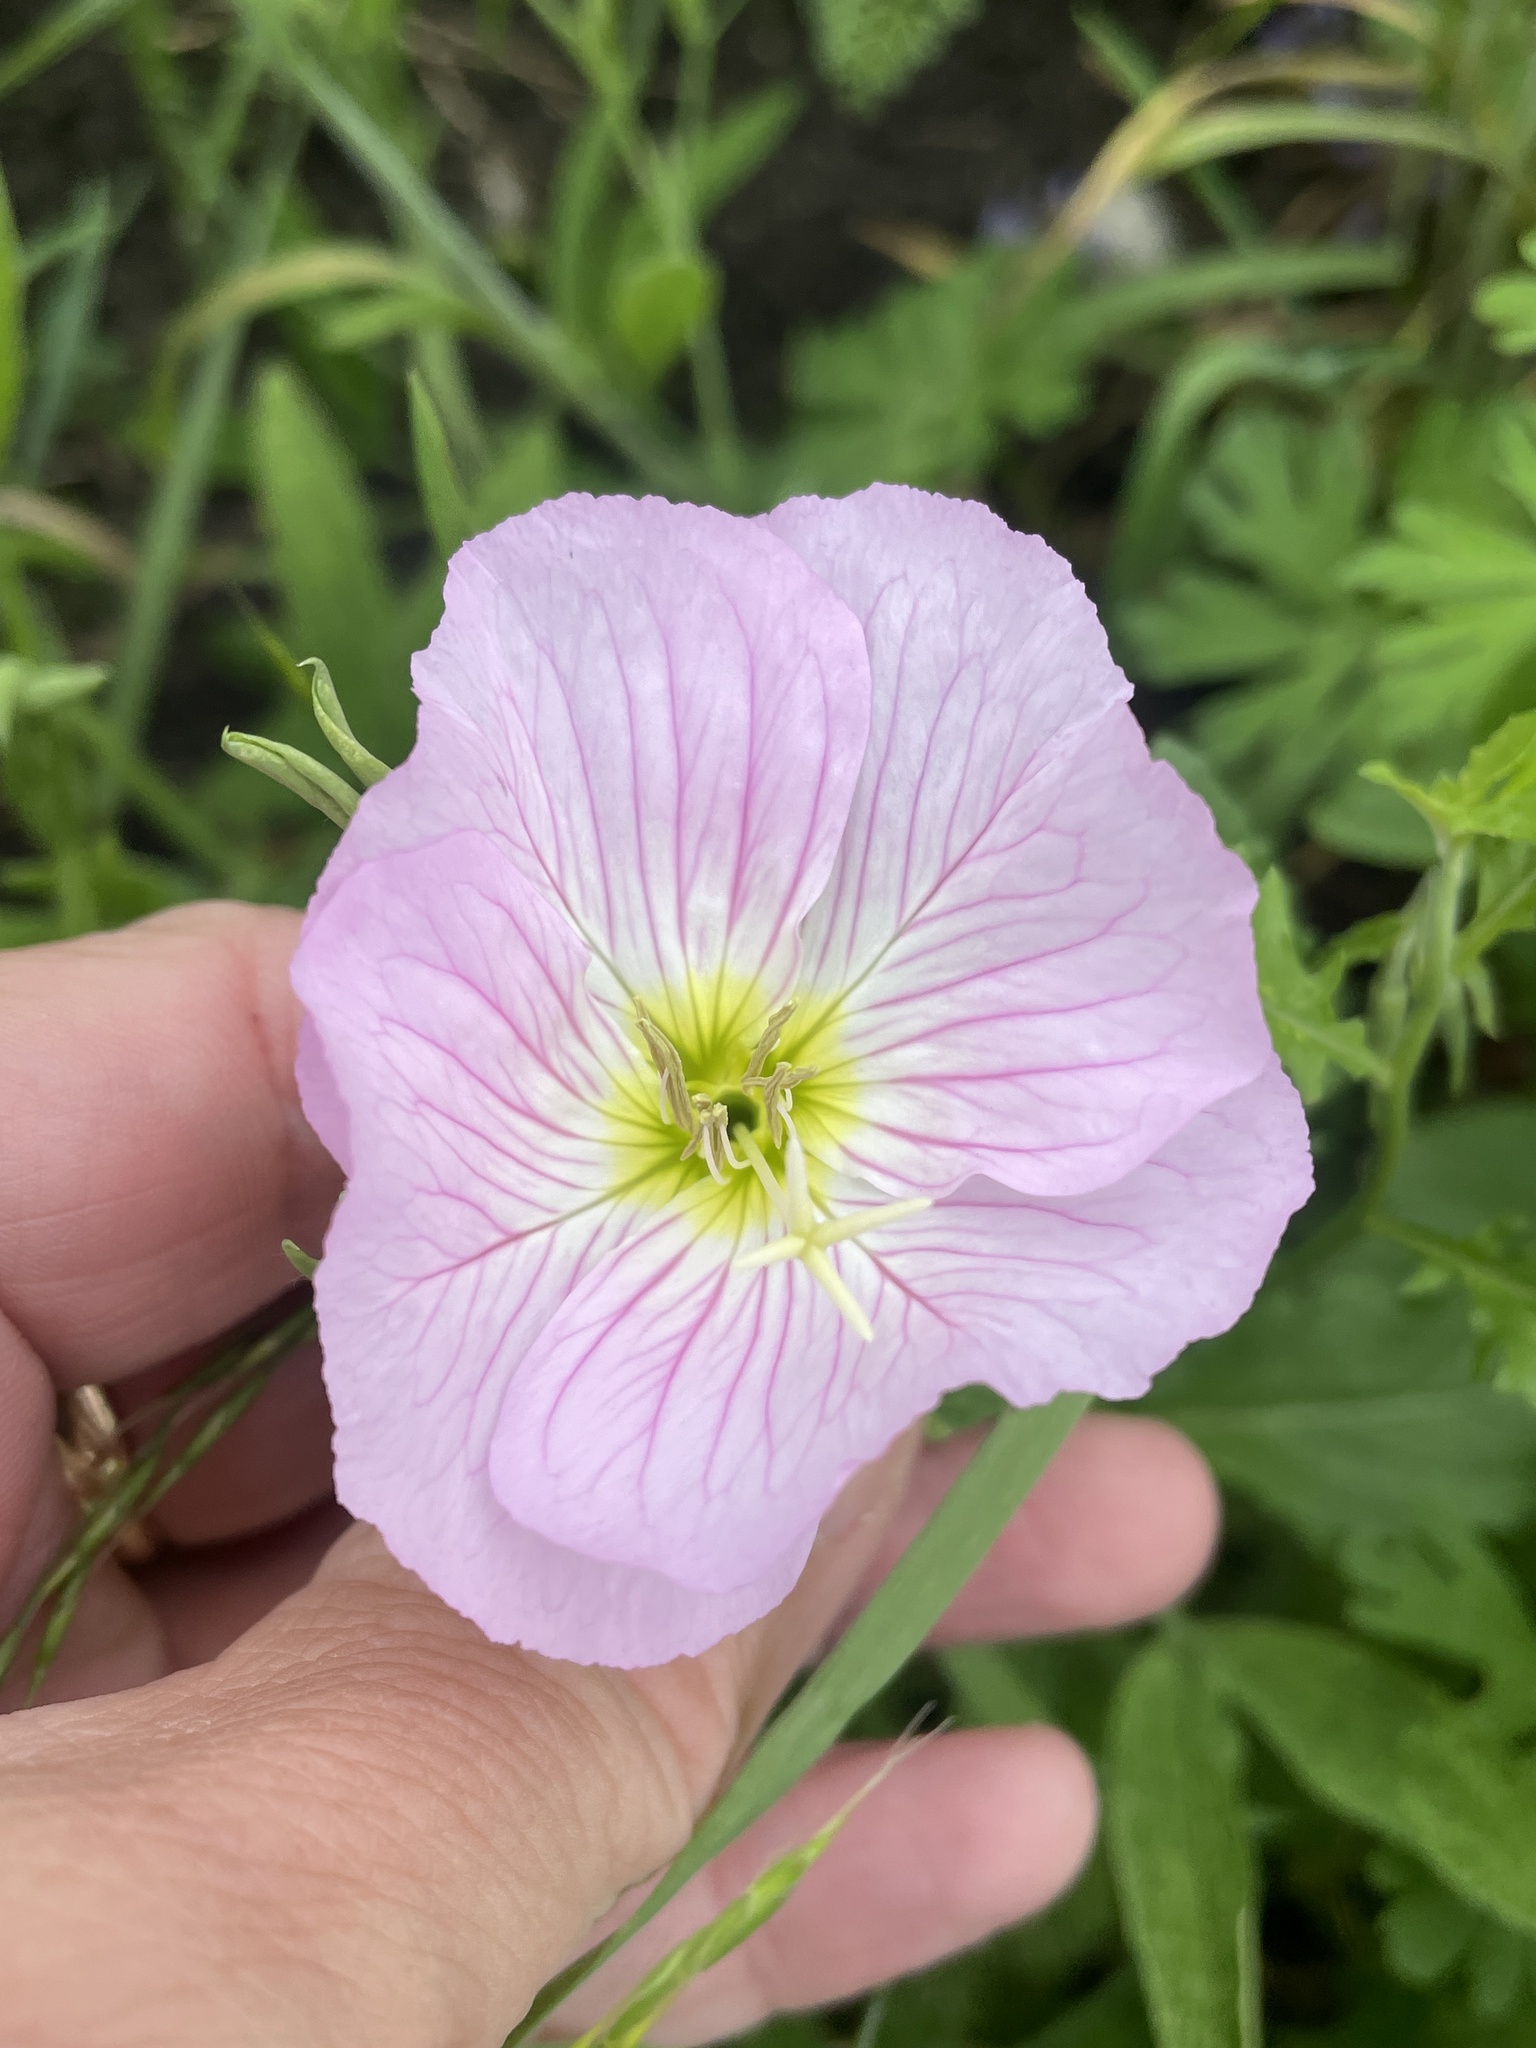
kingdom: Plantae
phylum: Tracheophyta
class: Magnoliopsida
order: Myrtales
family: Onagraceae
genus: Oenothera
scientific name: Oenothera speciosa
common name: White evening-primrose
